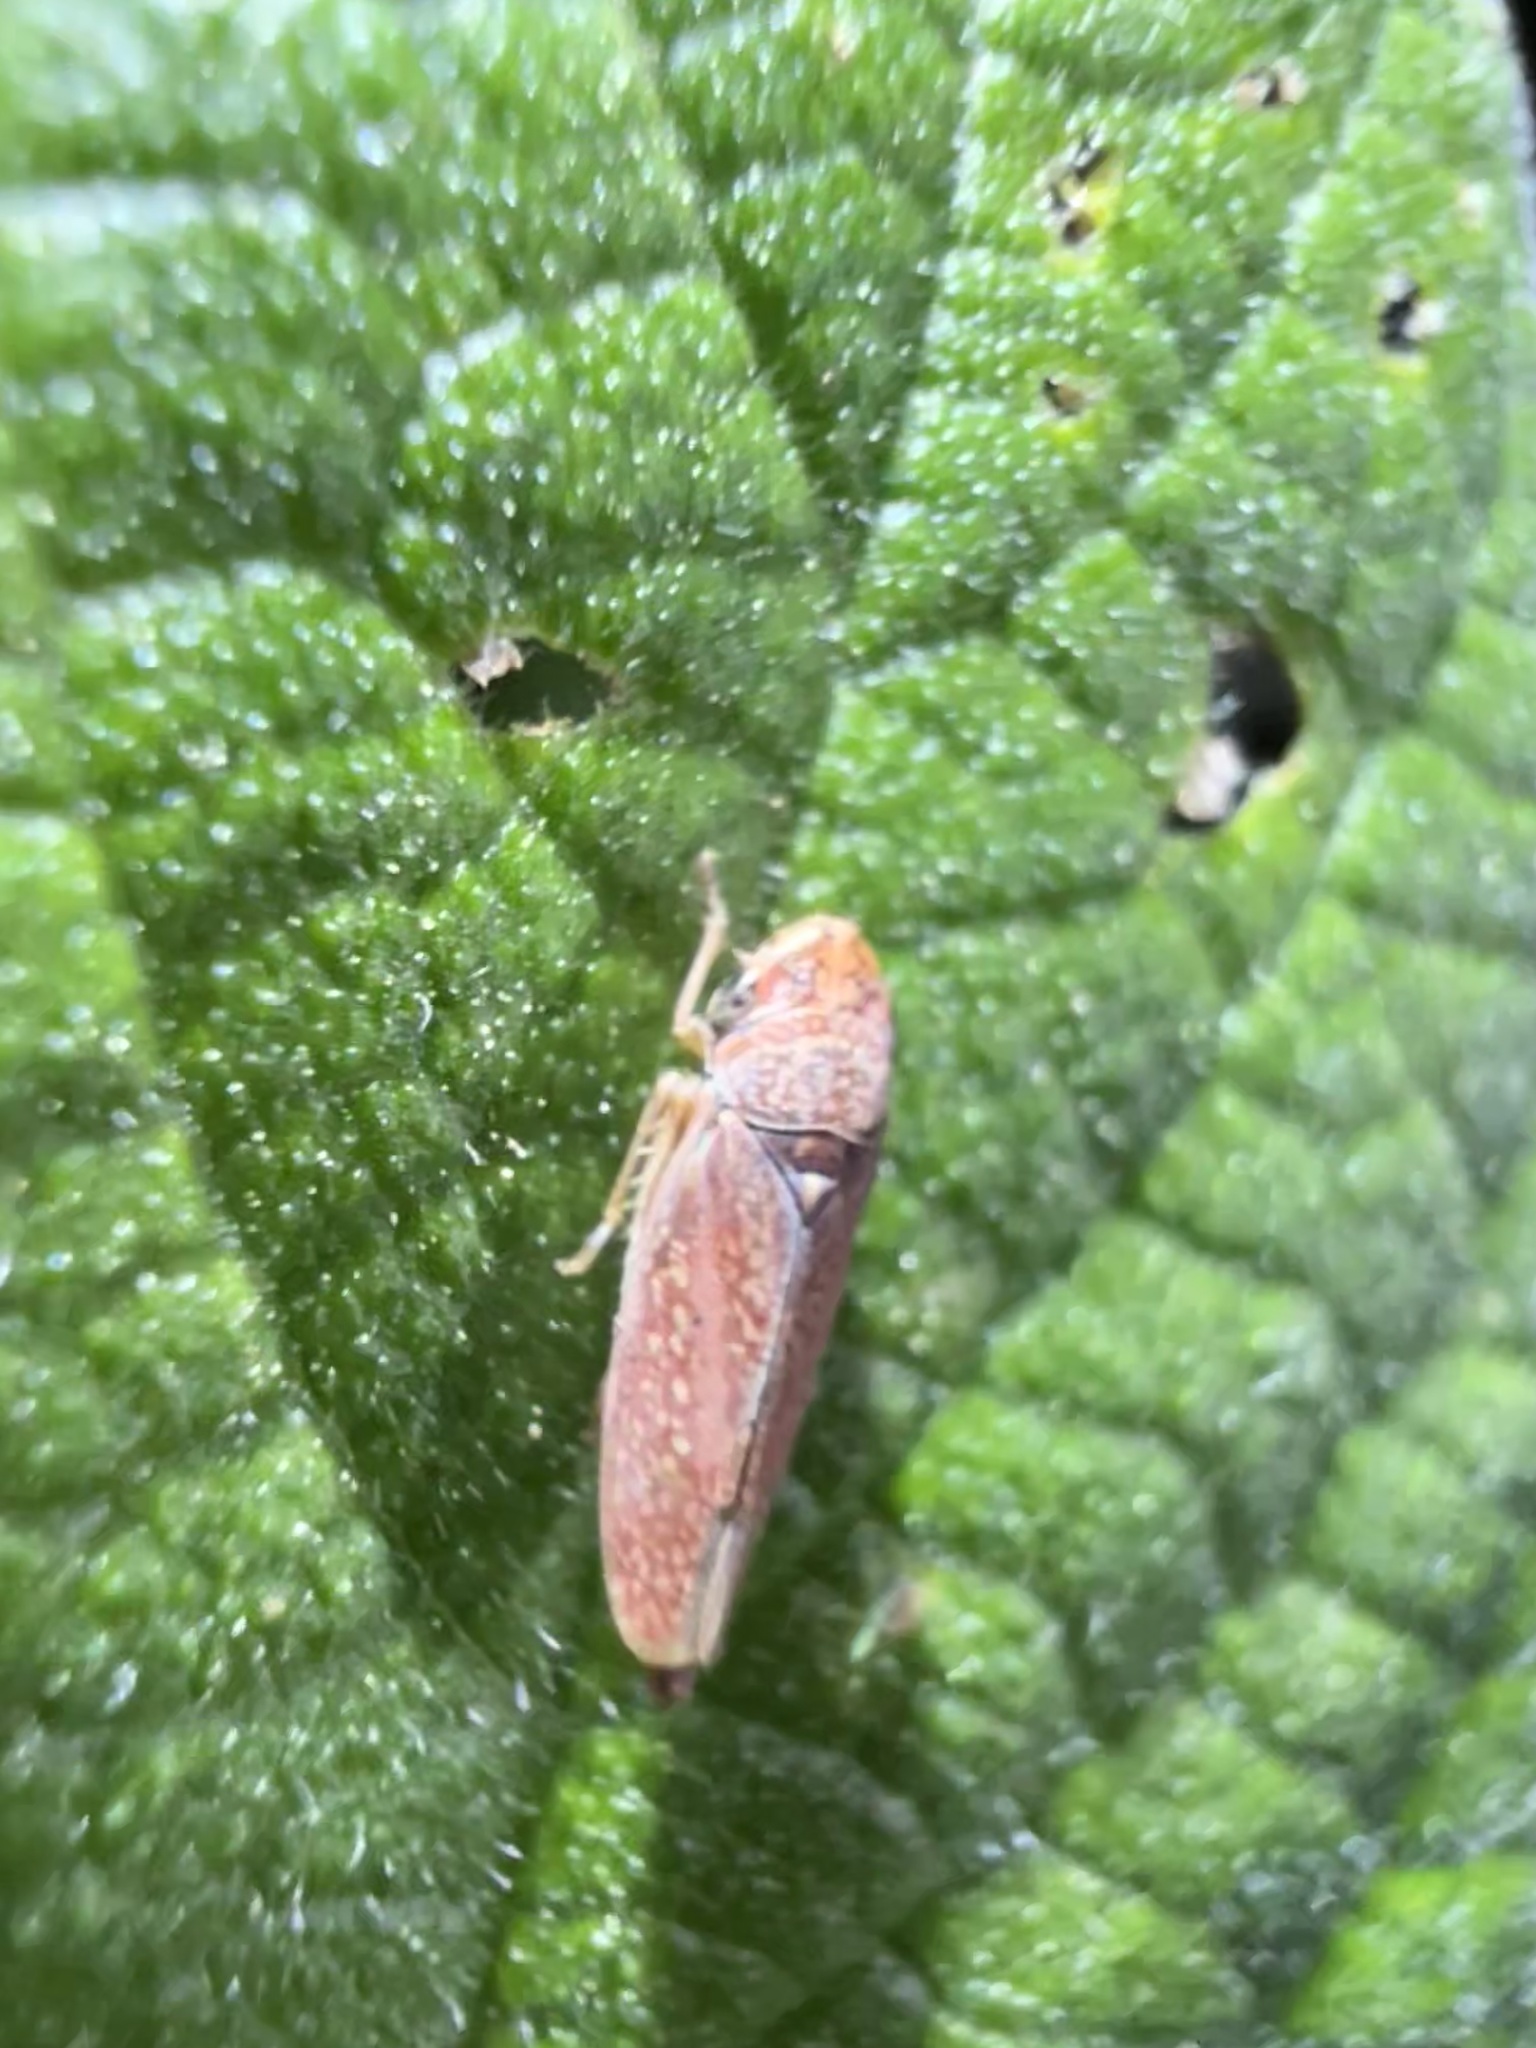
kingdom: Animalia
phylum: Arthropoda
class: Insecta
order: Hemiptera
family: Cicadellidae
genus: Graphocephala
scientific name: Graphocephala uhleri
